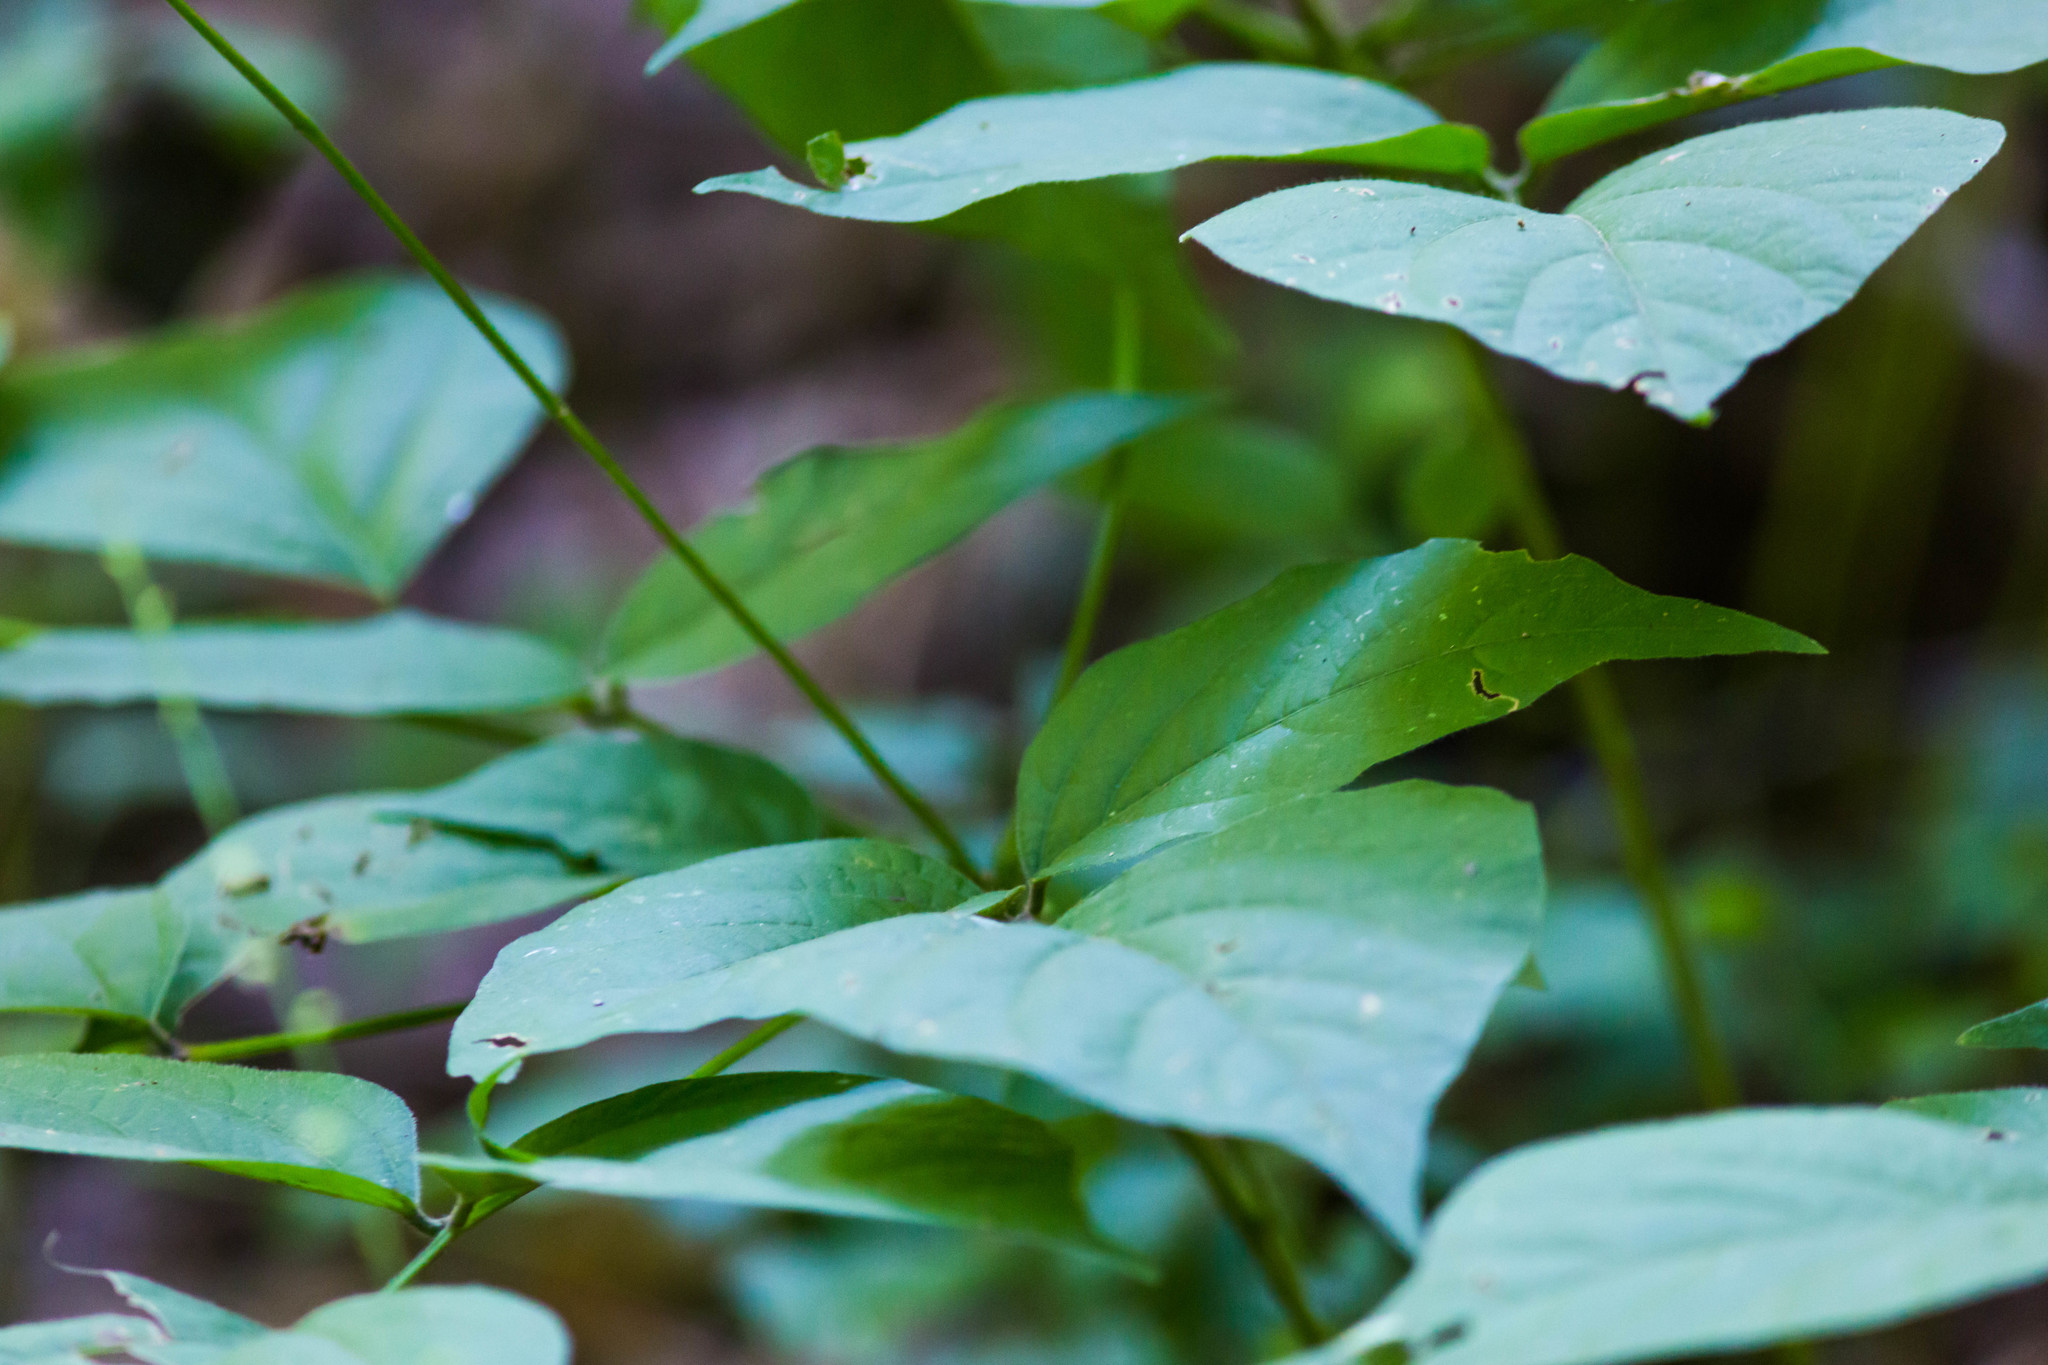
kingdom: Plantae
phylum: Tracheophyta
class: Magnoliopsida
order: Fabales
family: Fabaceae
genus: Hylodesmum
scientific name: Hylodesmum glutinosum
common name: Clustered-leaved tick-trefoil
